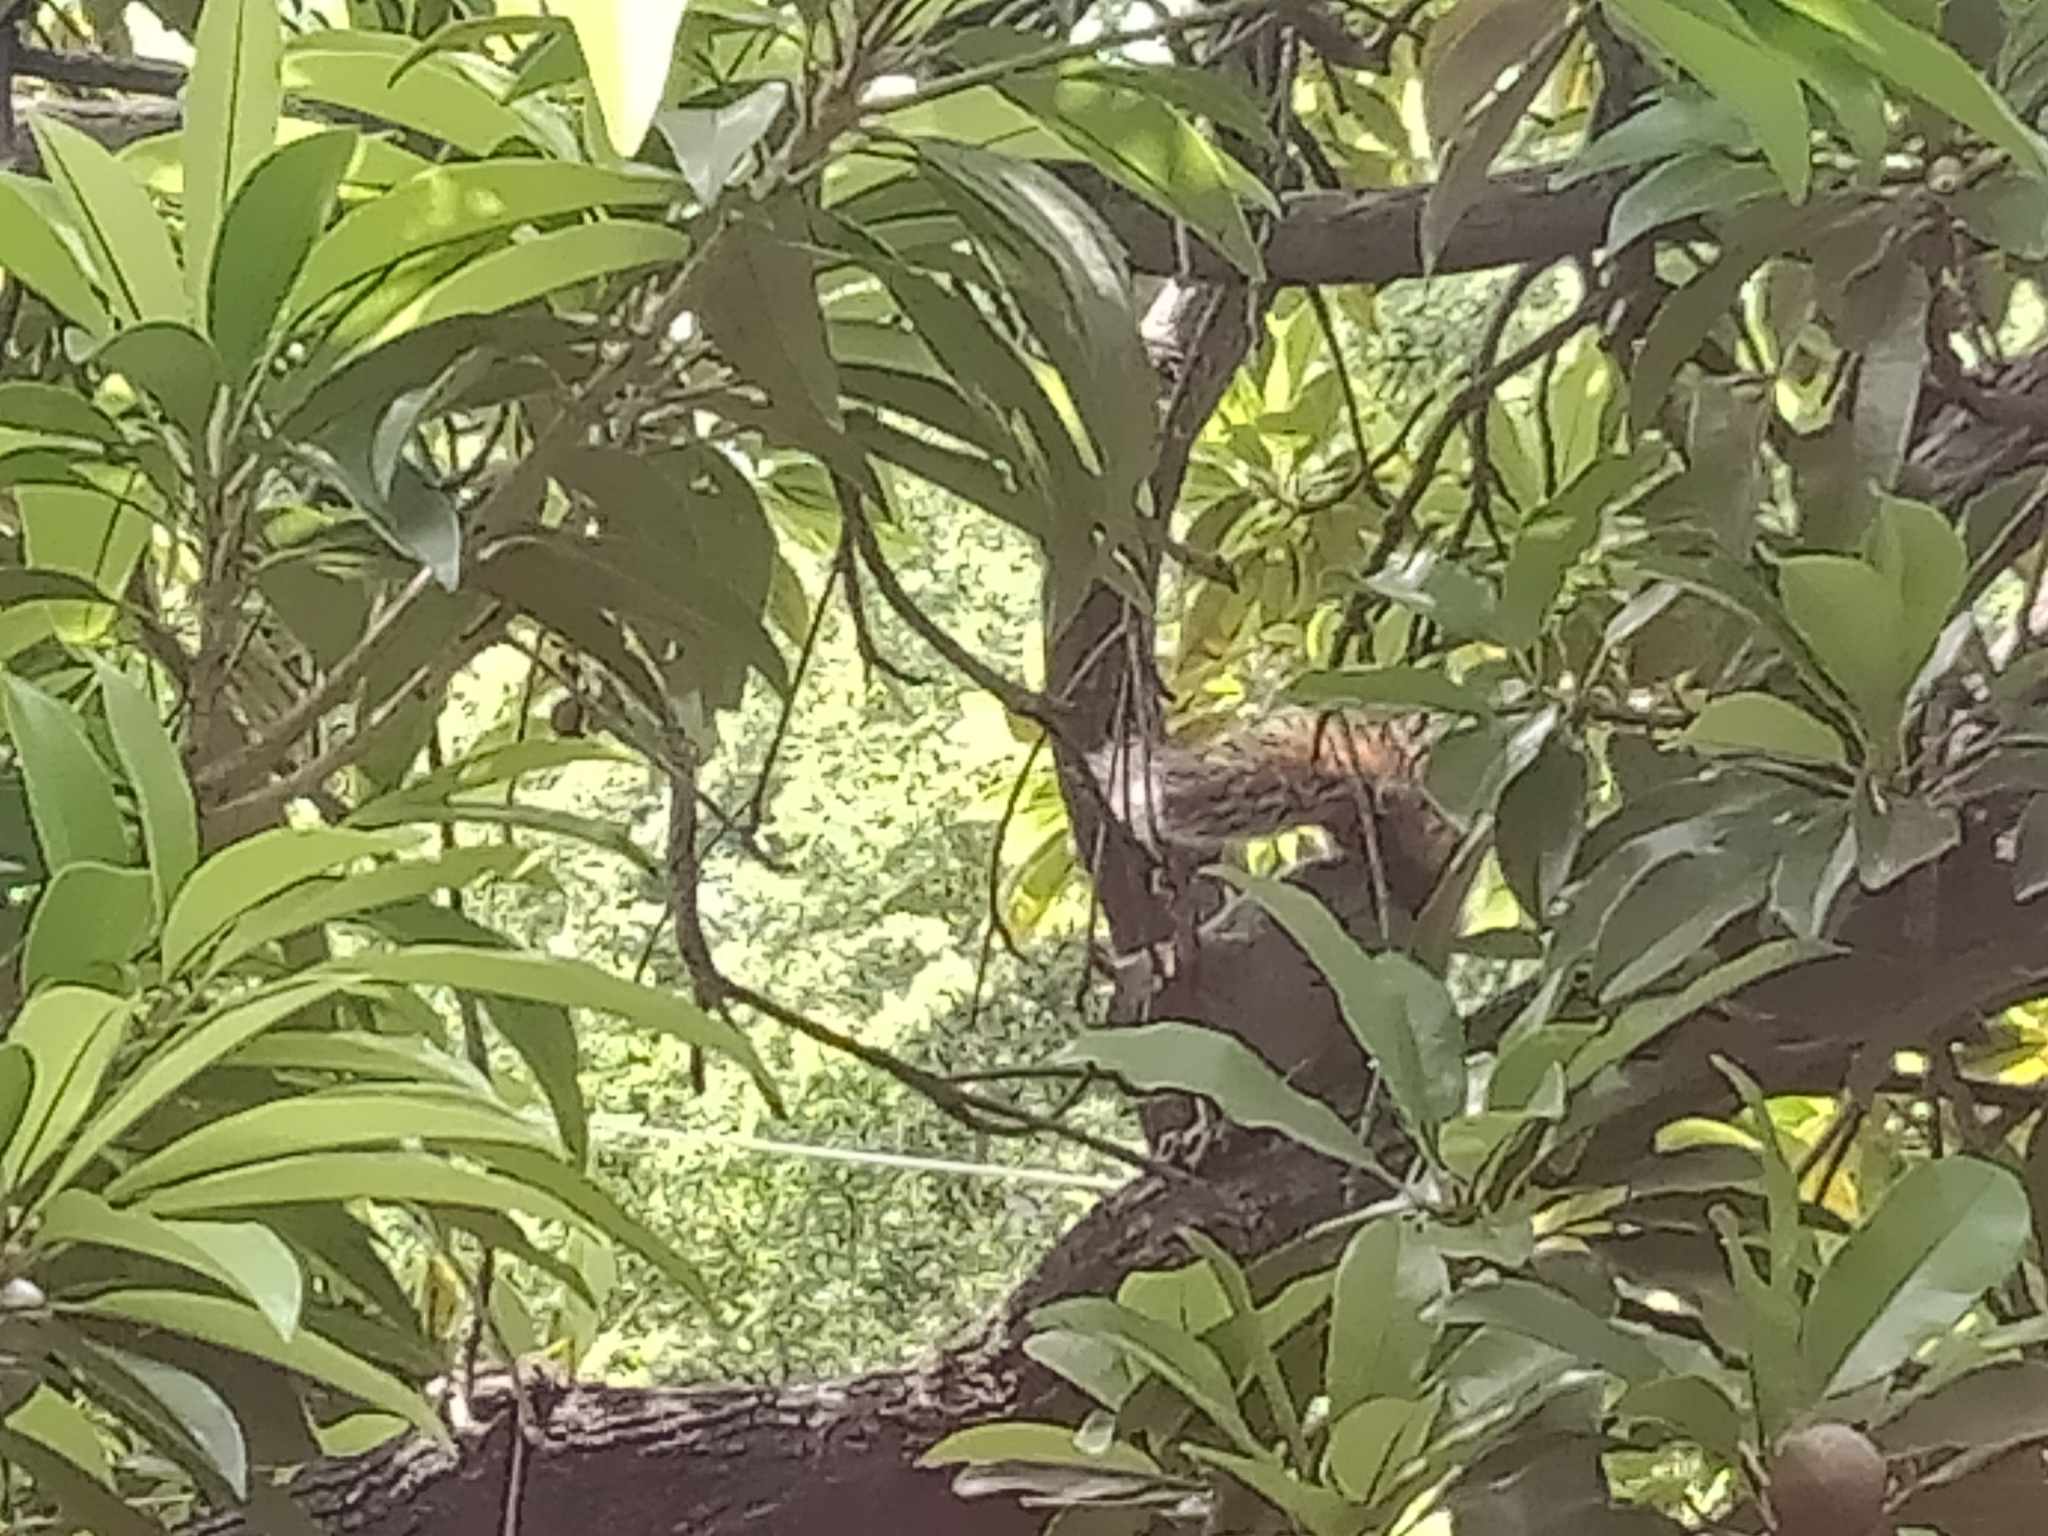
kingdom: Animalia
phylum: Chordata
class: Mammalia
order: Rodentia
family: Sciuridae
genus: Sciurus
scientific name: Sciurus aureogaster
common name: Red-bellied squirrel
